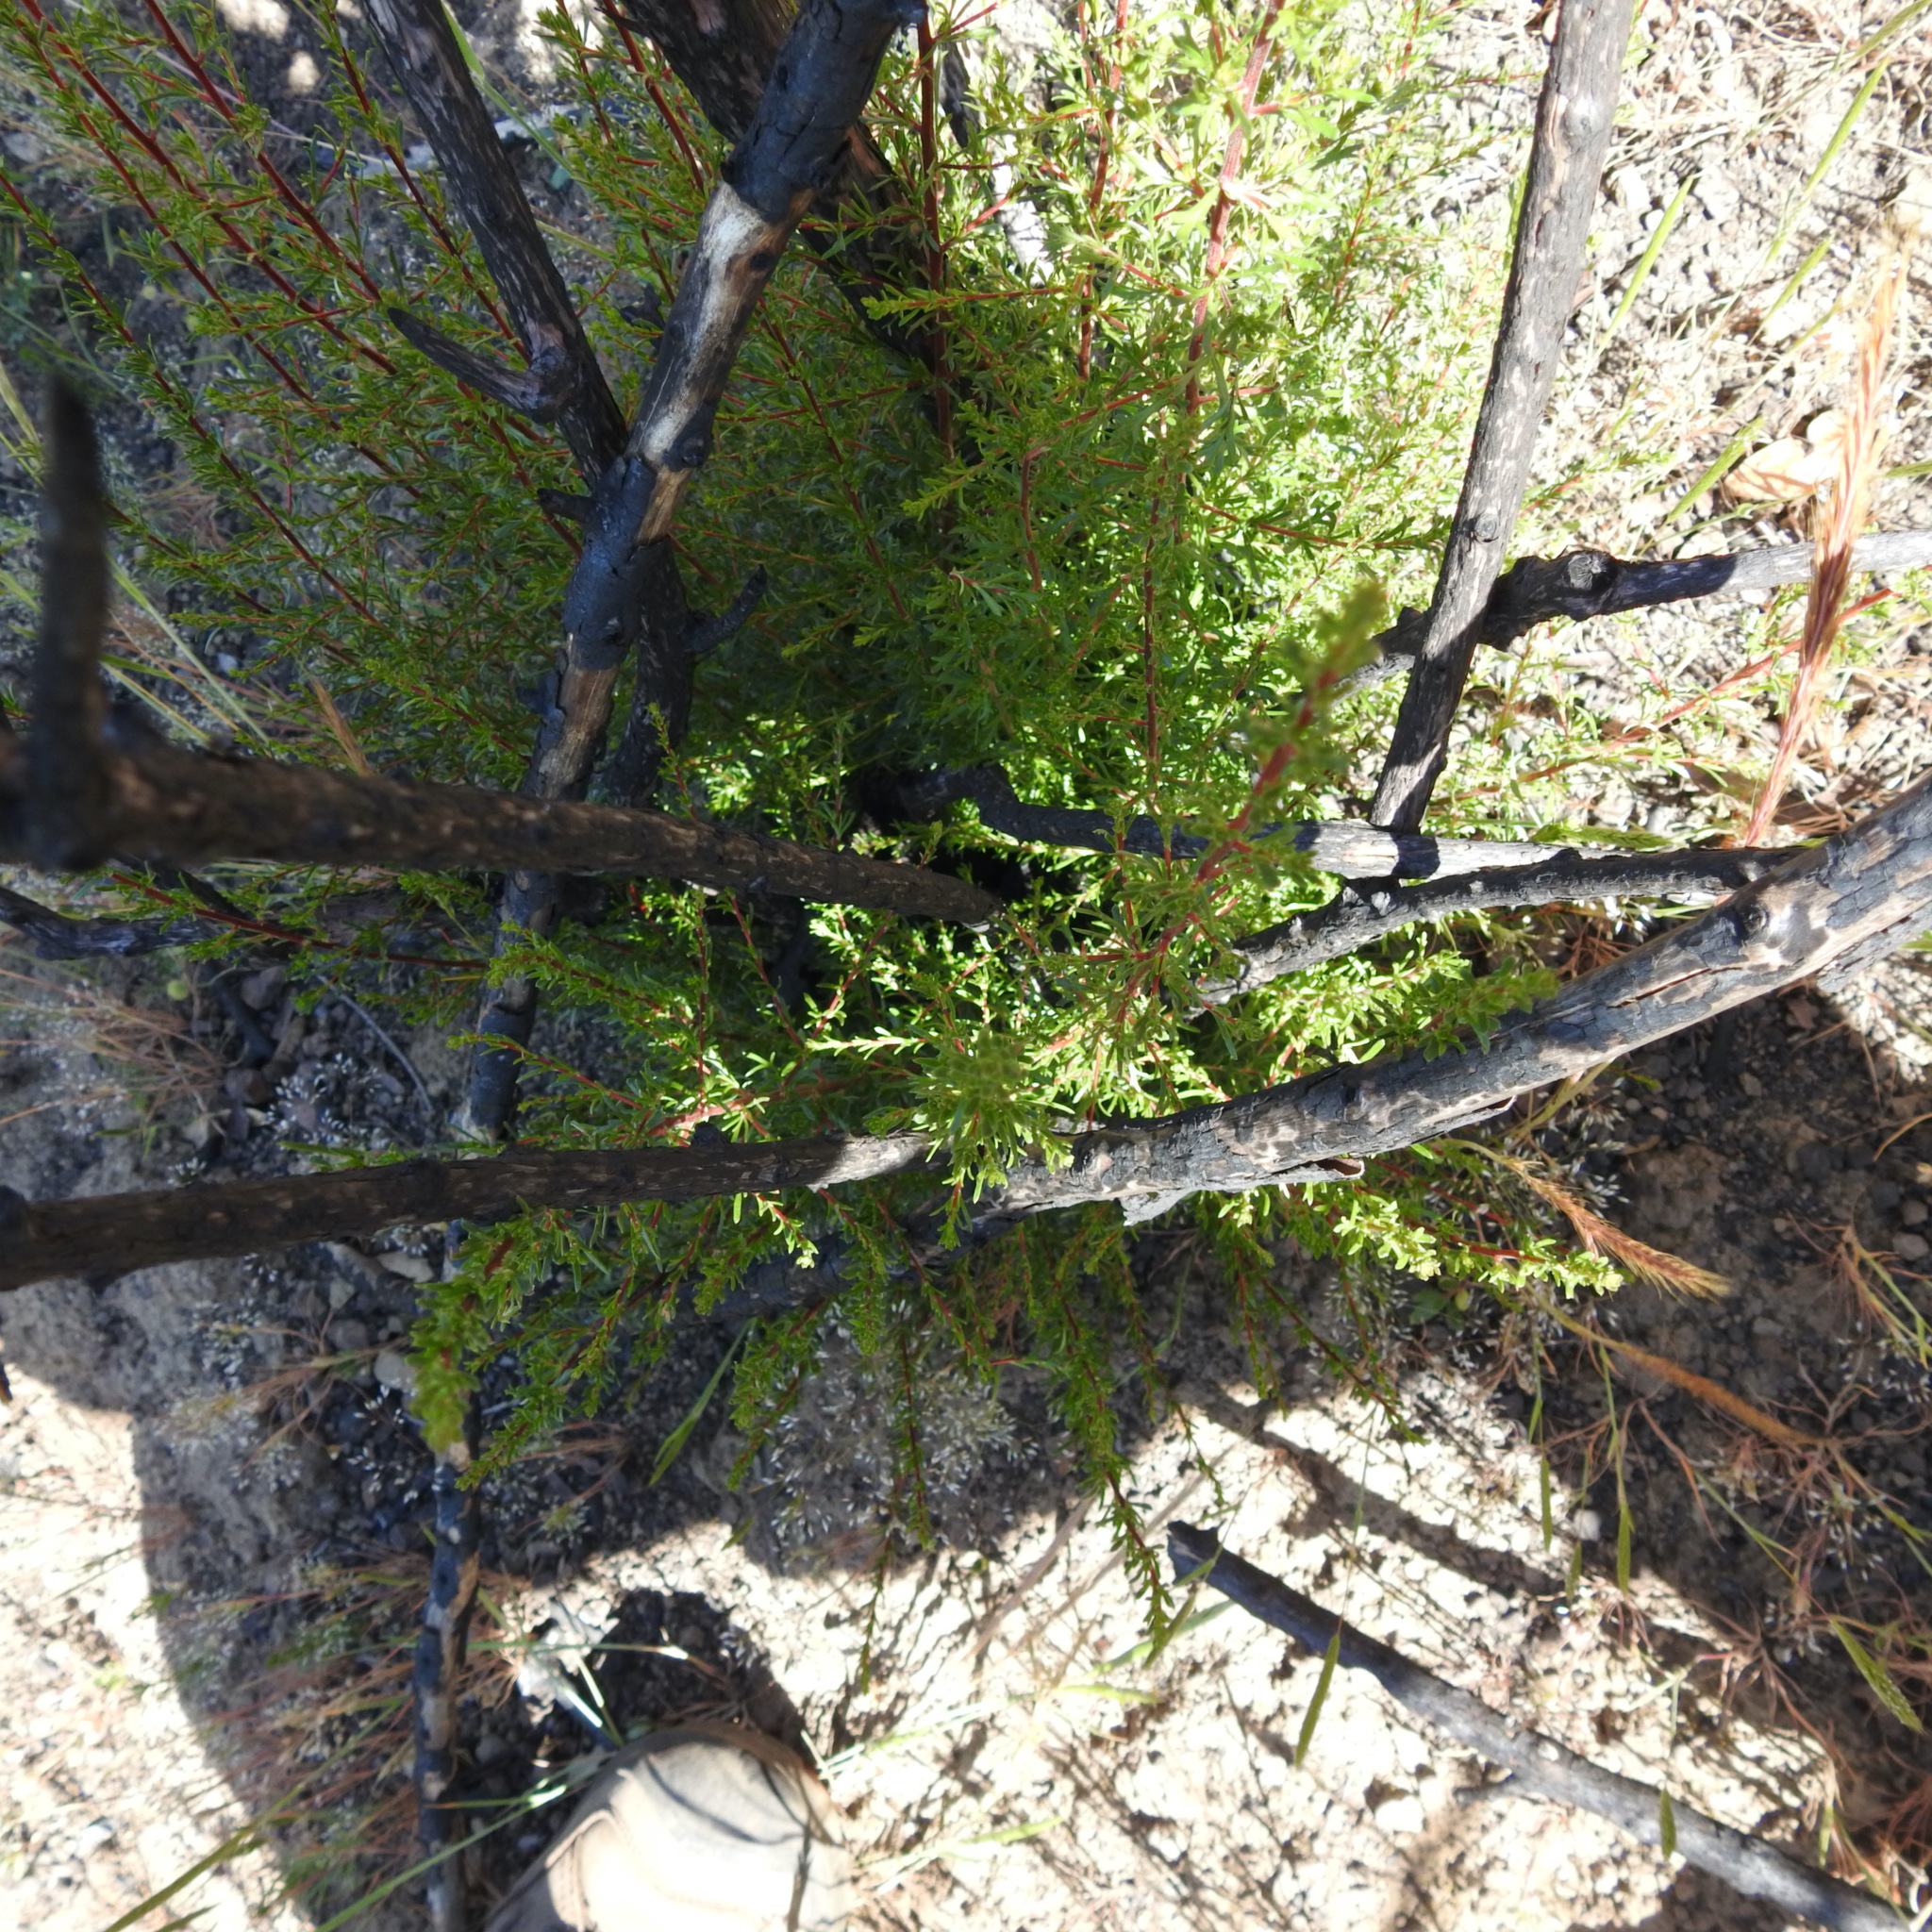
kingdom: Plantae
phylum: Tracheophyta
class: Magnoliopsida
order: Rosales
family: Rosaceae
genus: Adenostoma
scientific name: Adenostoma fasciculatum
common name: Chamise
